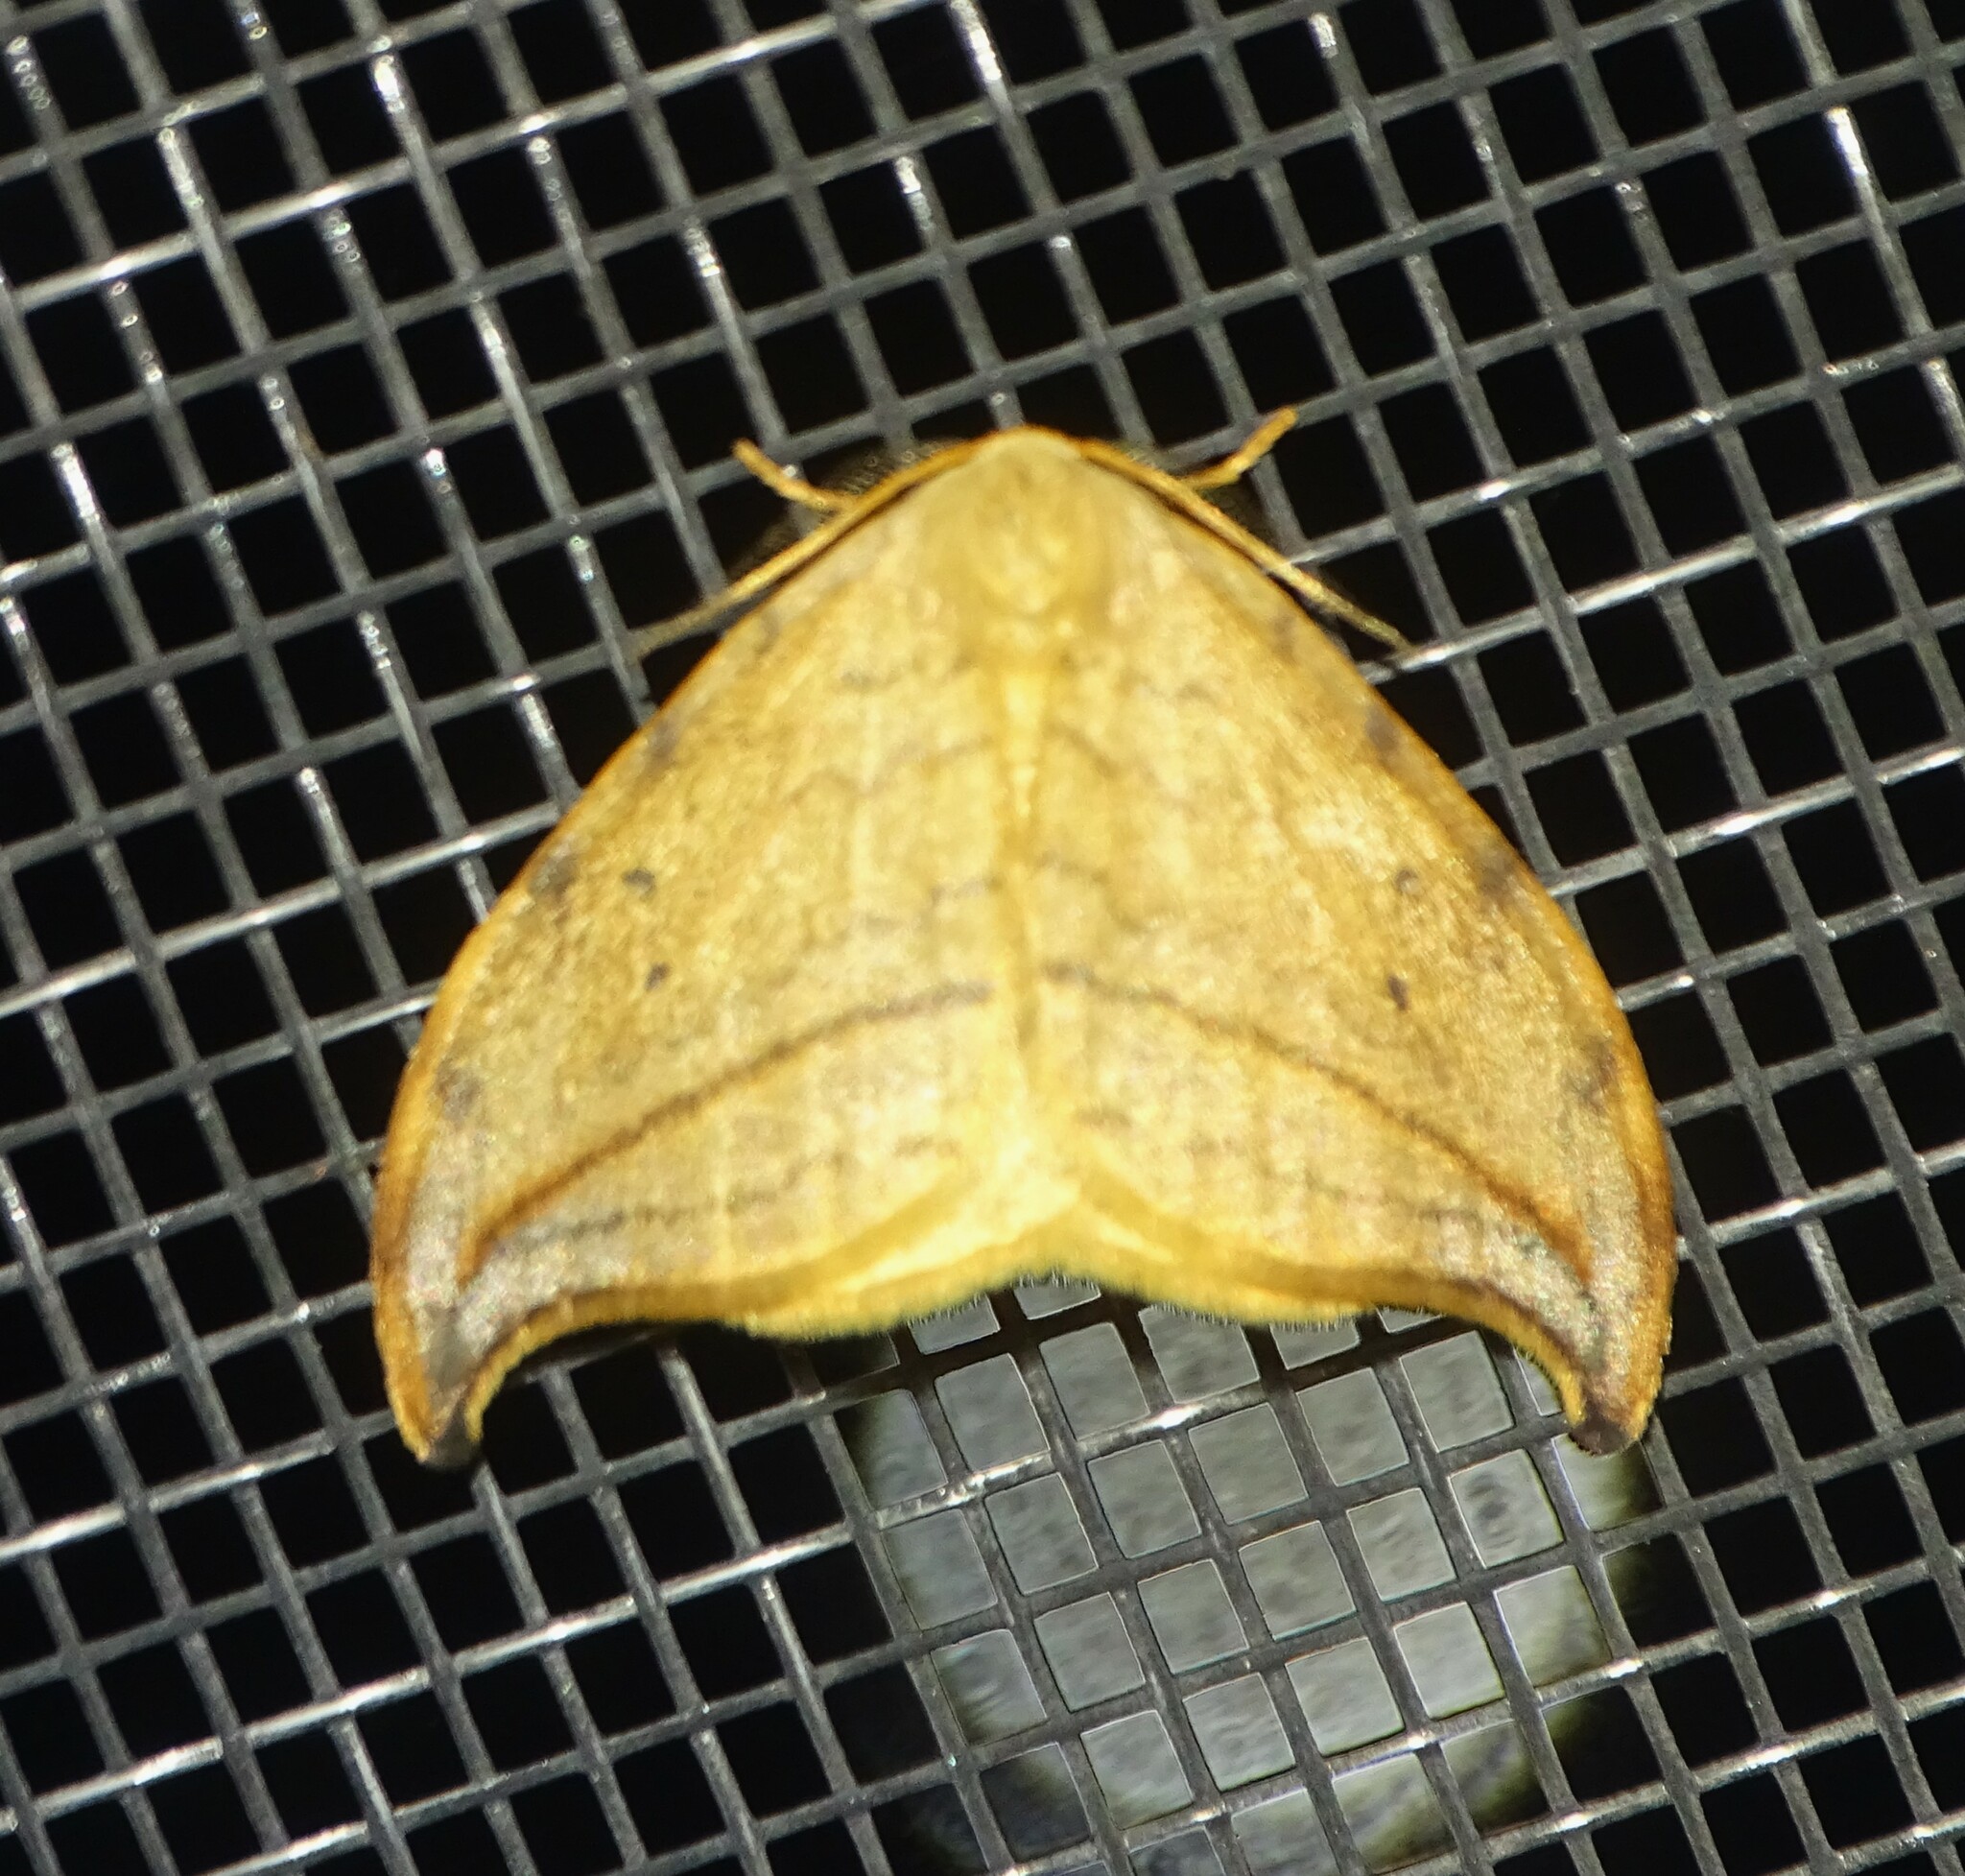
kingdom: Animalia
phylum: Arthropoda
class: Insecta
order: Lepidoptera
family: Drepanidae
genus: Drepana
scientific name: Drepana arcuata
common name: Arched hooktip moth
